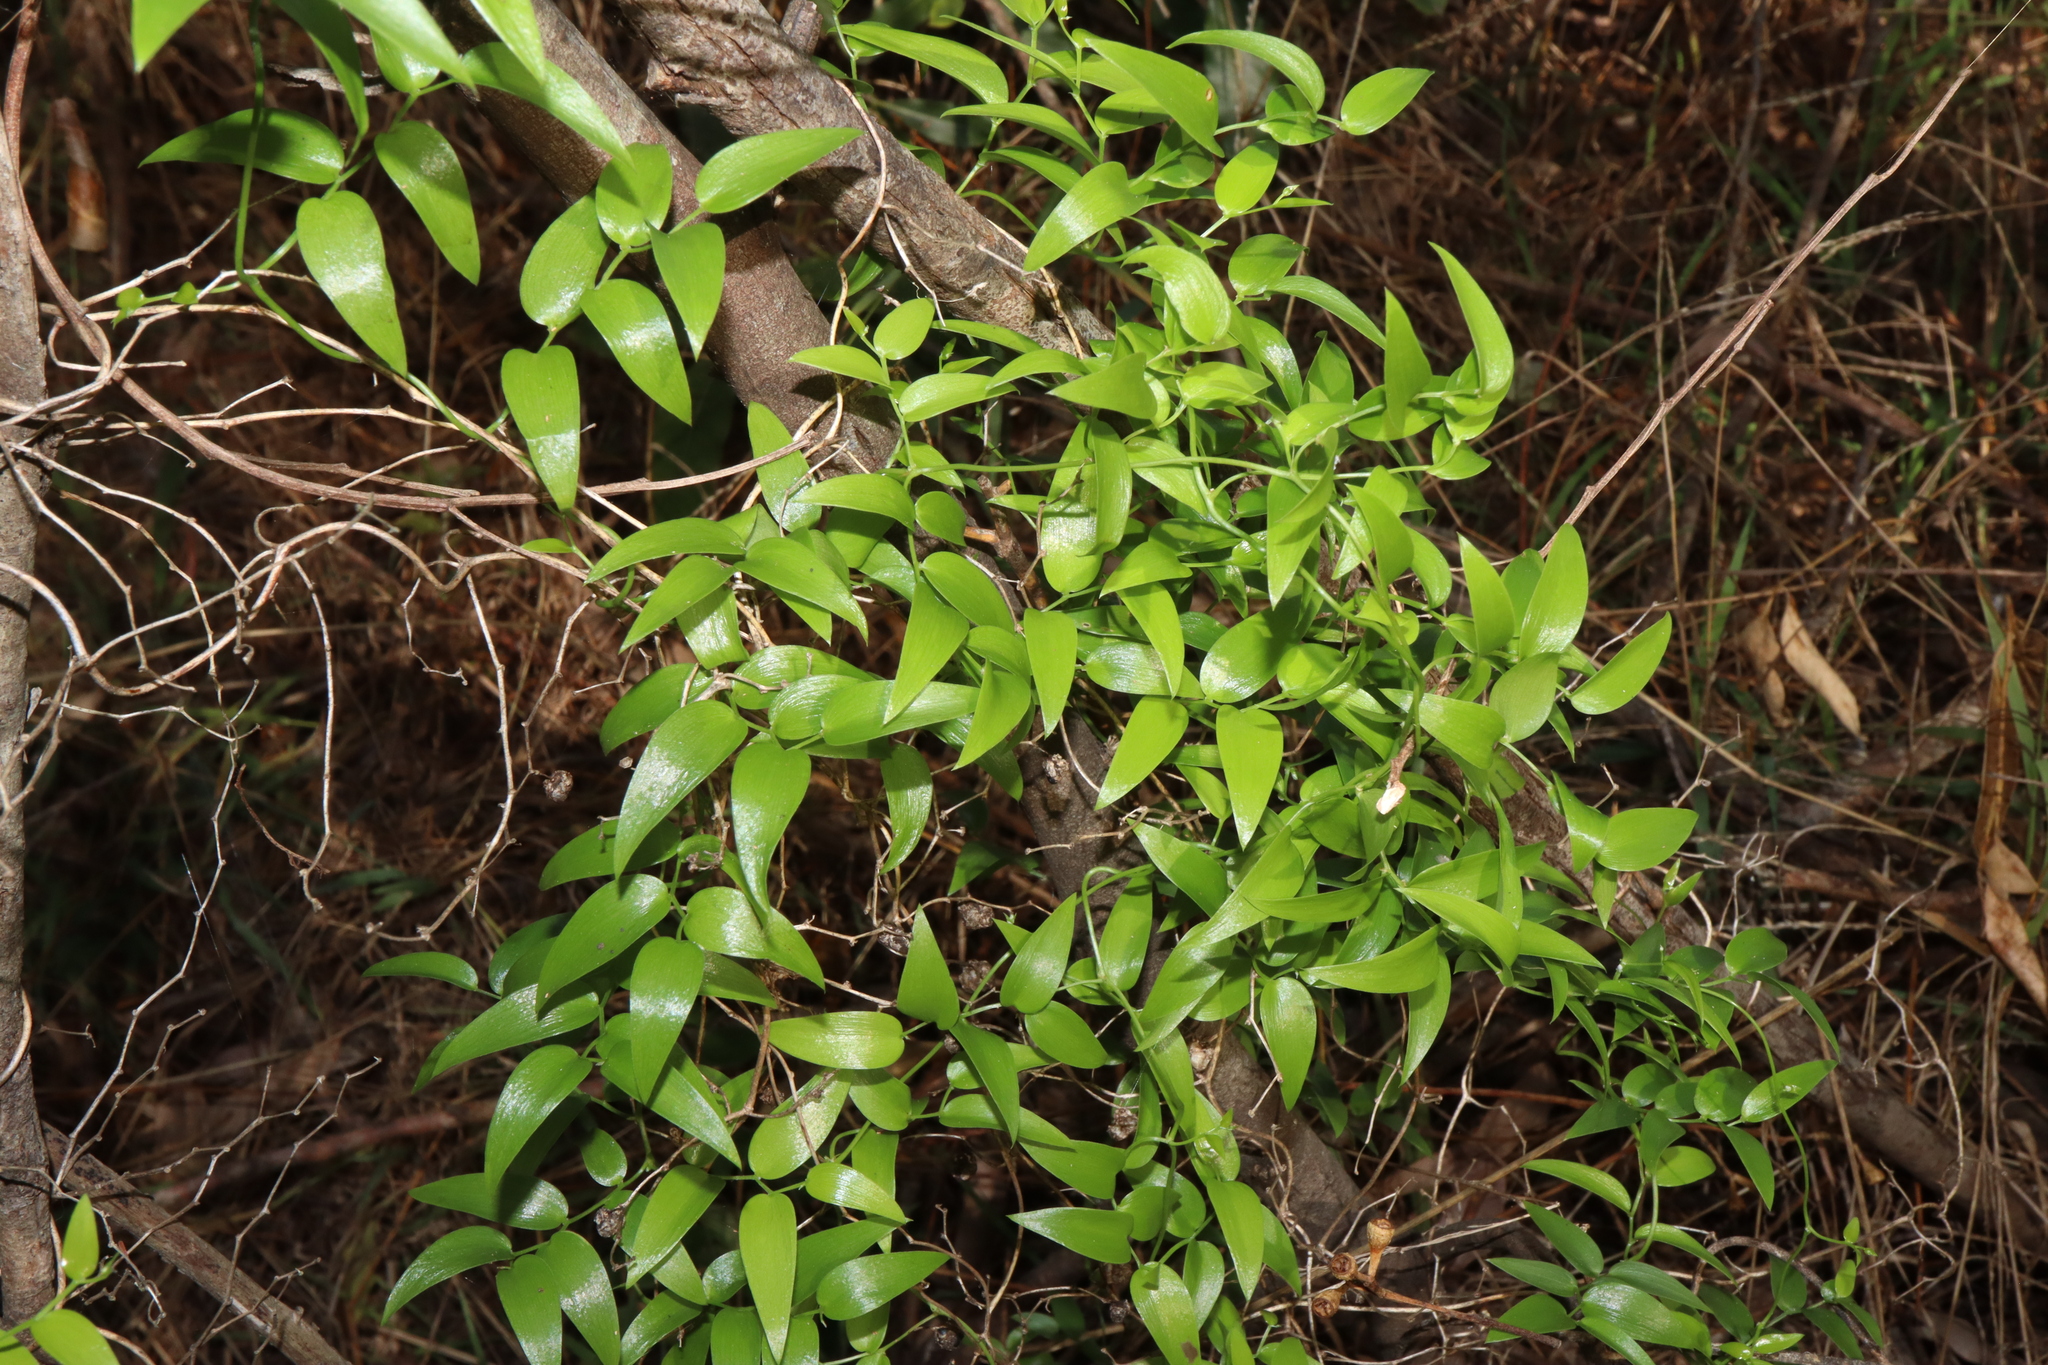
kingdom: Plantae
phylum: Tracheophyta
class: Liliopsida
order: Asparagales
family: Asparagaceae
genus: Asparagus
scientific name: Asparagus asparagoides
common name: African asparagus fern
